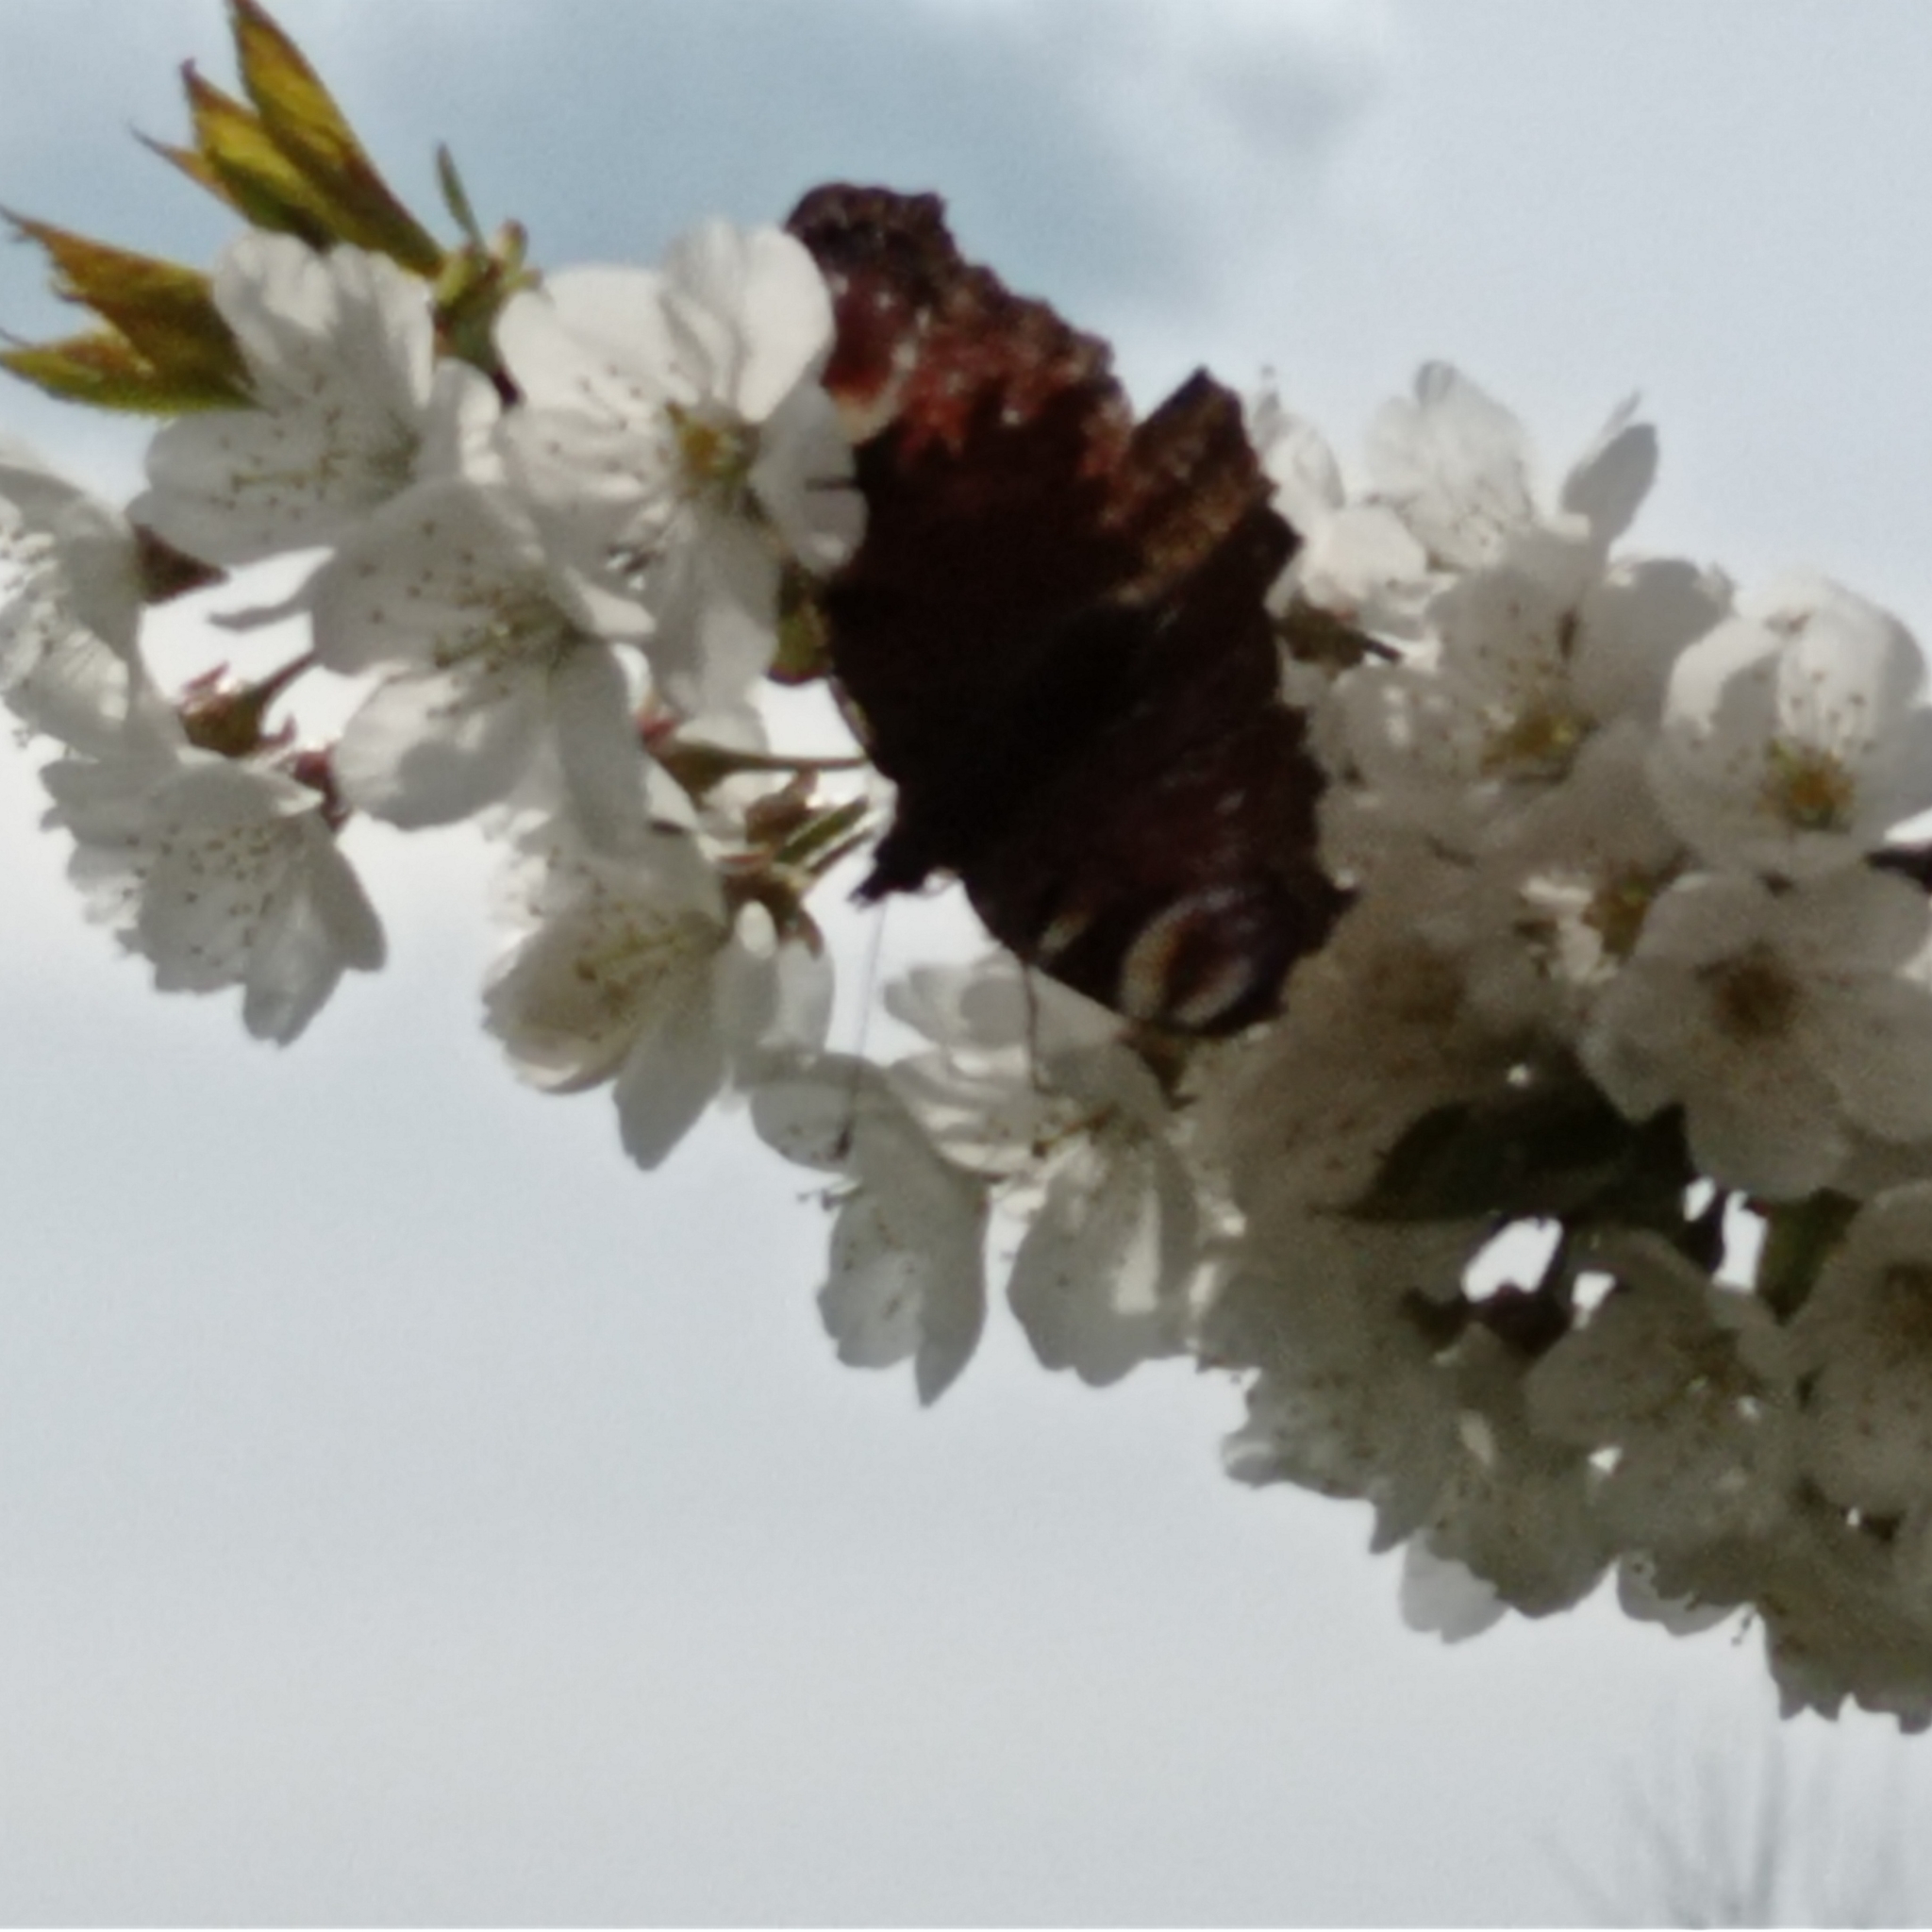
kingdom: Animalia
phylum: Arthropoda
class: Insecta
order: Lepidoptera
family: Nymphalidae
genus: Aglais
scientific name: Aglais io
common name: Peacock
